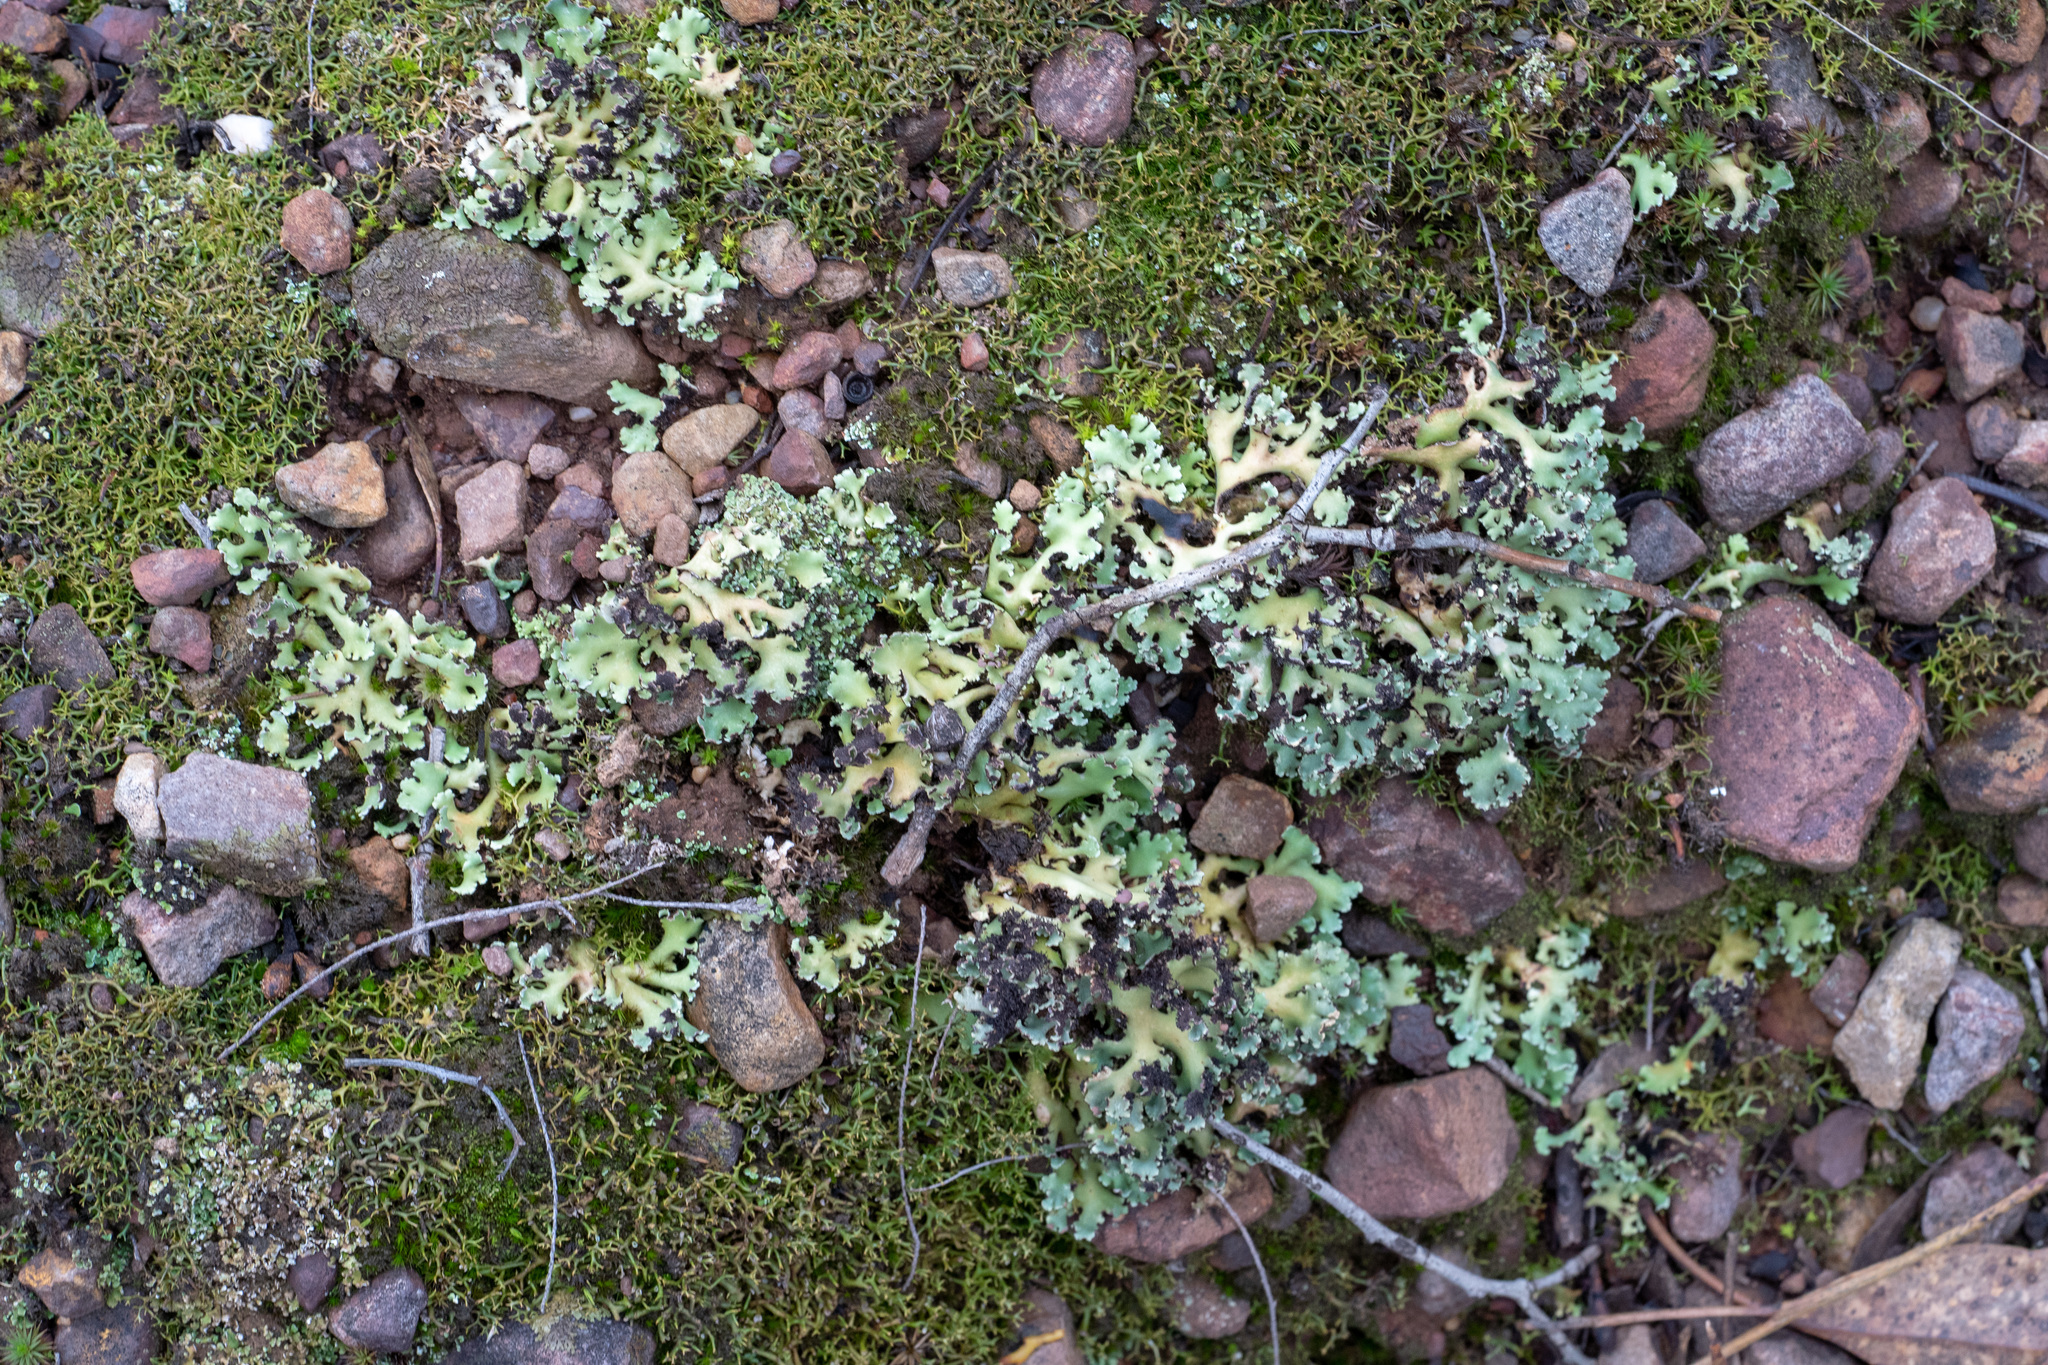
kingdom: Fungi
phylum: Ascomycota
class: Lecanoromycetes
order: Lecanorales
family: Cladoniaceae
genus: Cladia
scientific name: Cladia muelleri
